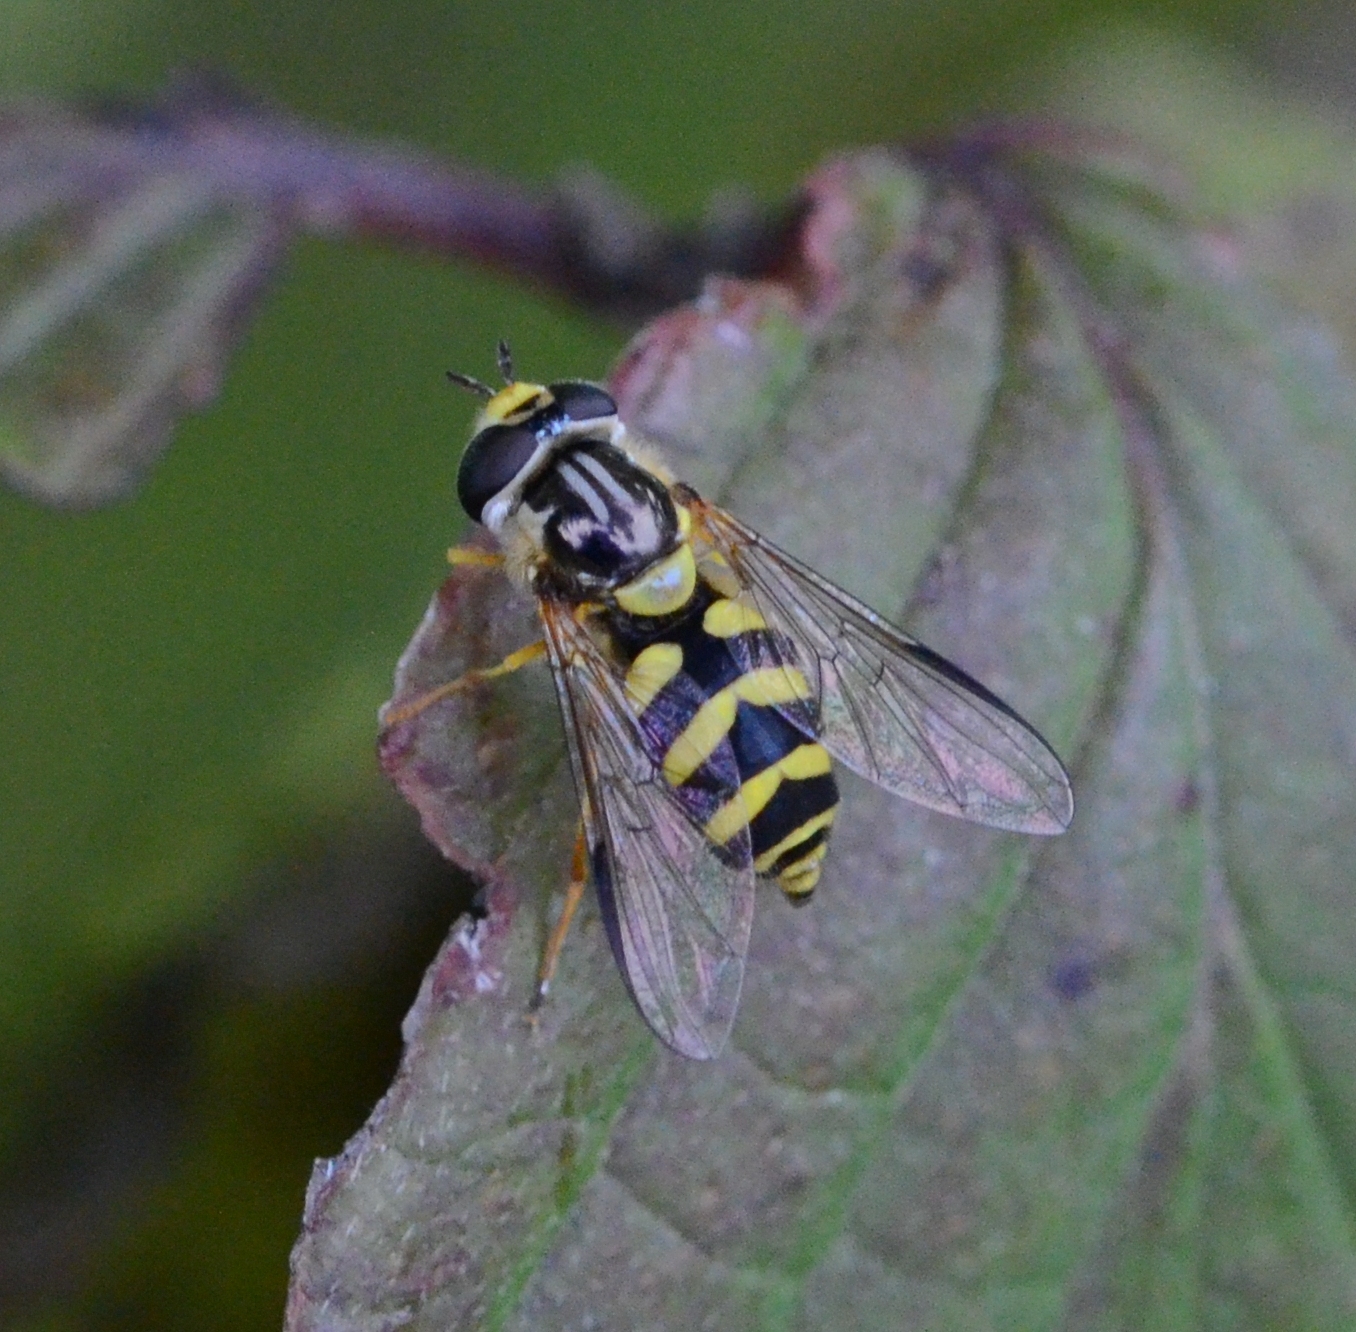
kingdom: Animalia
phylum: Arthropoda
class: Insecta
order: Diptera
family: Syrphidae
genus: Dasysyrphus
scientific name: Dasysyrphus albostriatus
